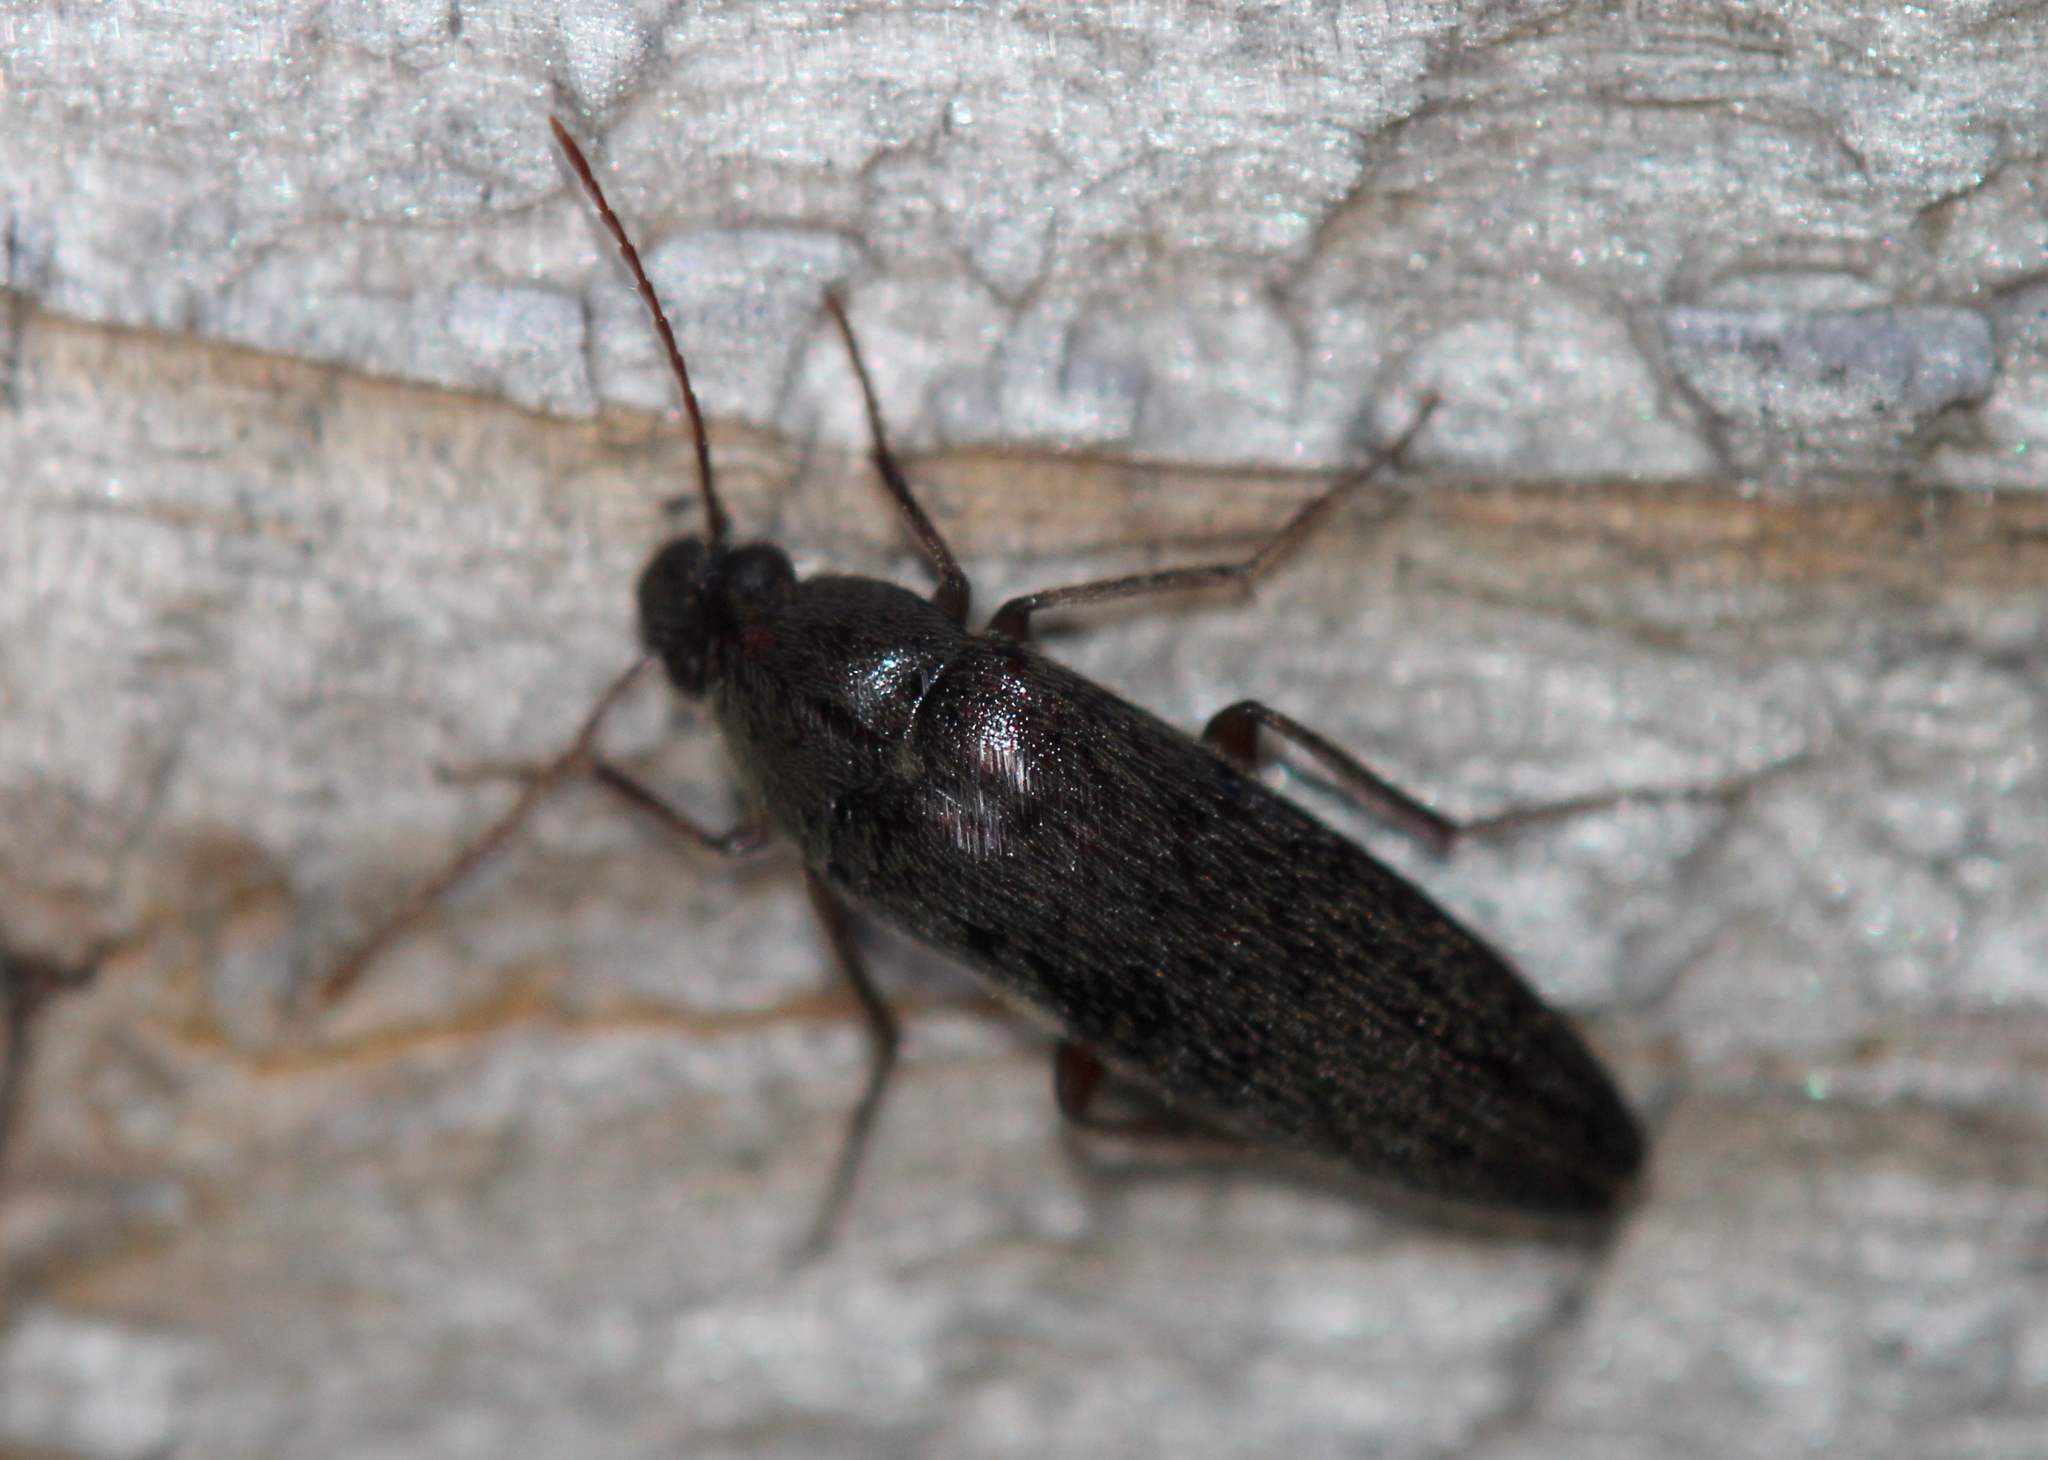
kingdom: Animalia
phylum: Arthropoda
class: Insecta
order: Coleoptera
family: Synchroidae
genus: Synchroa
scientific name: Synchroa punctata
